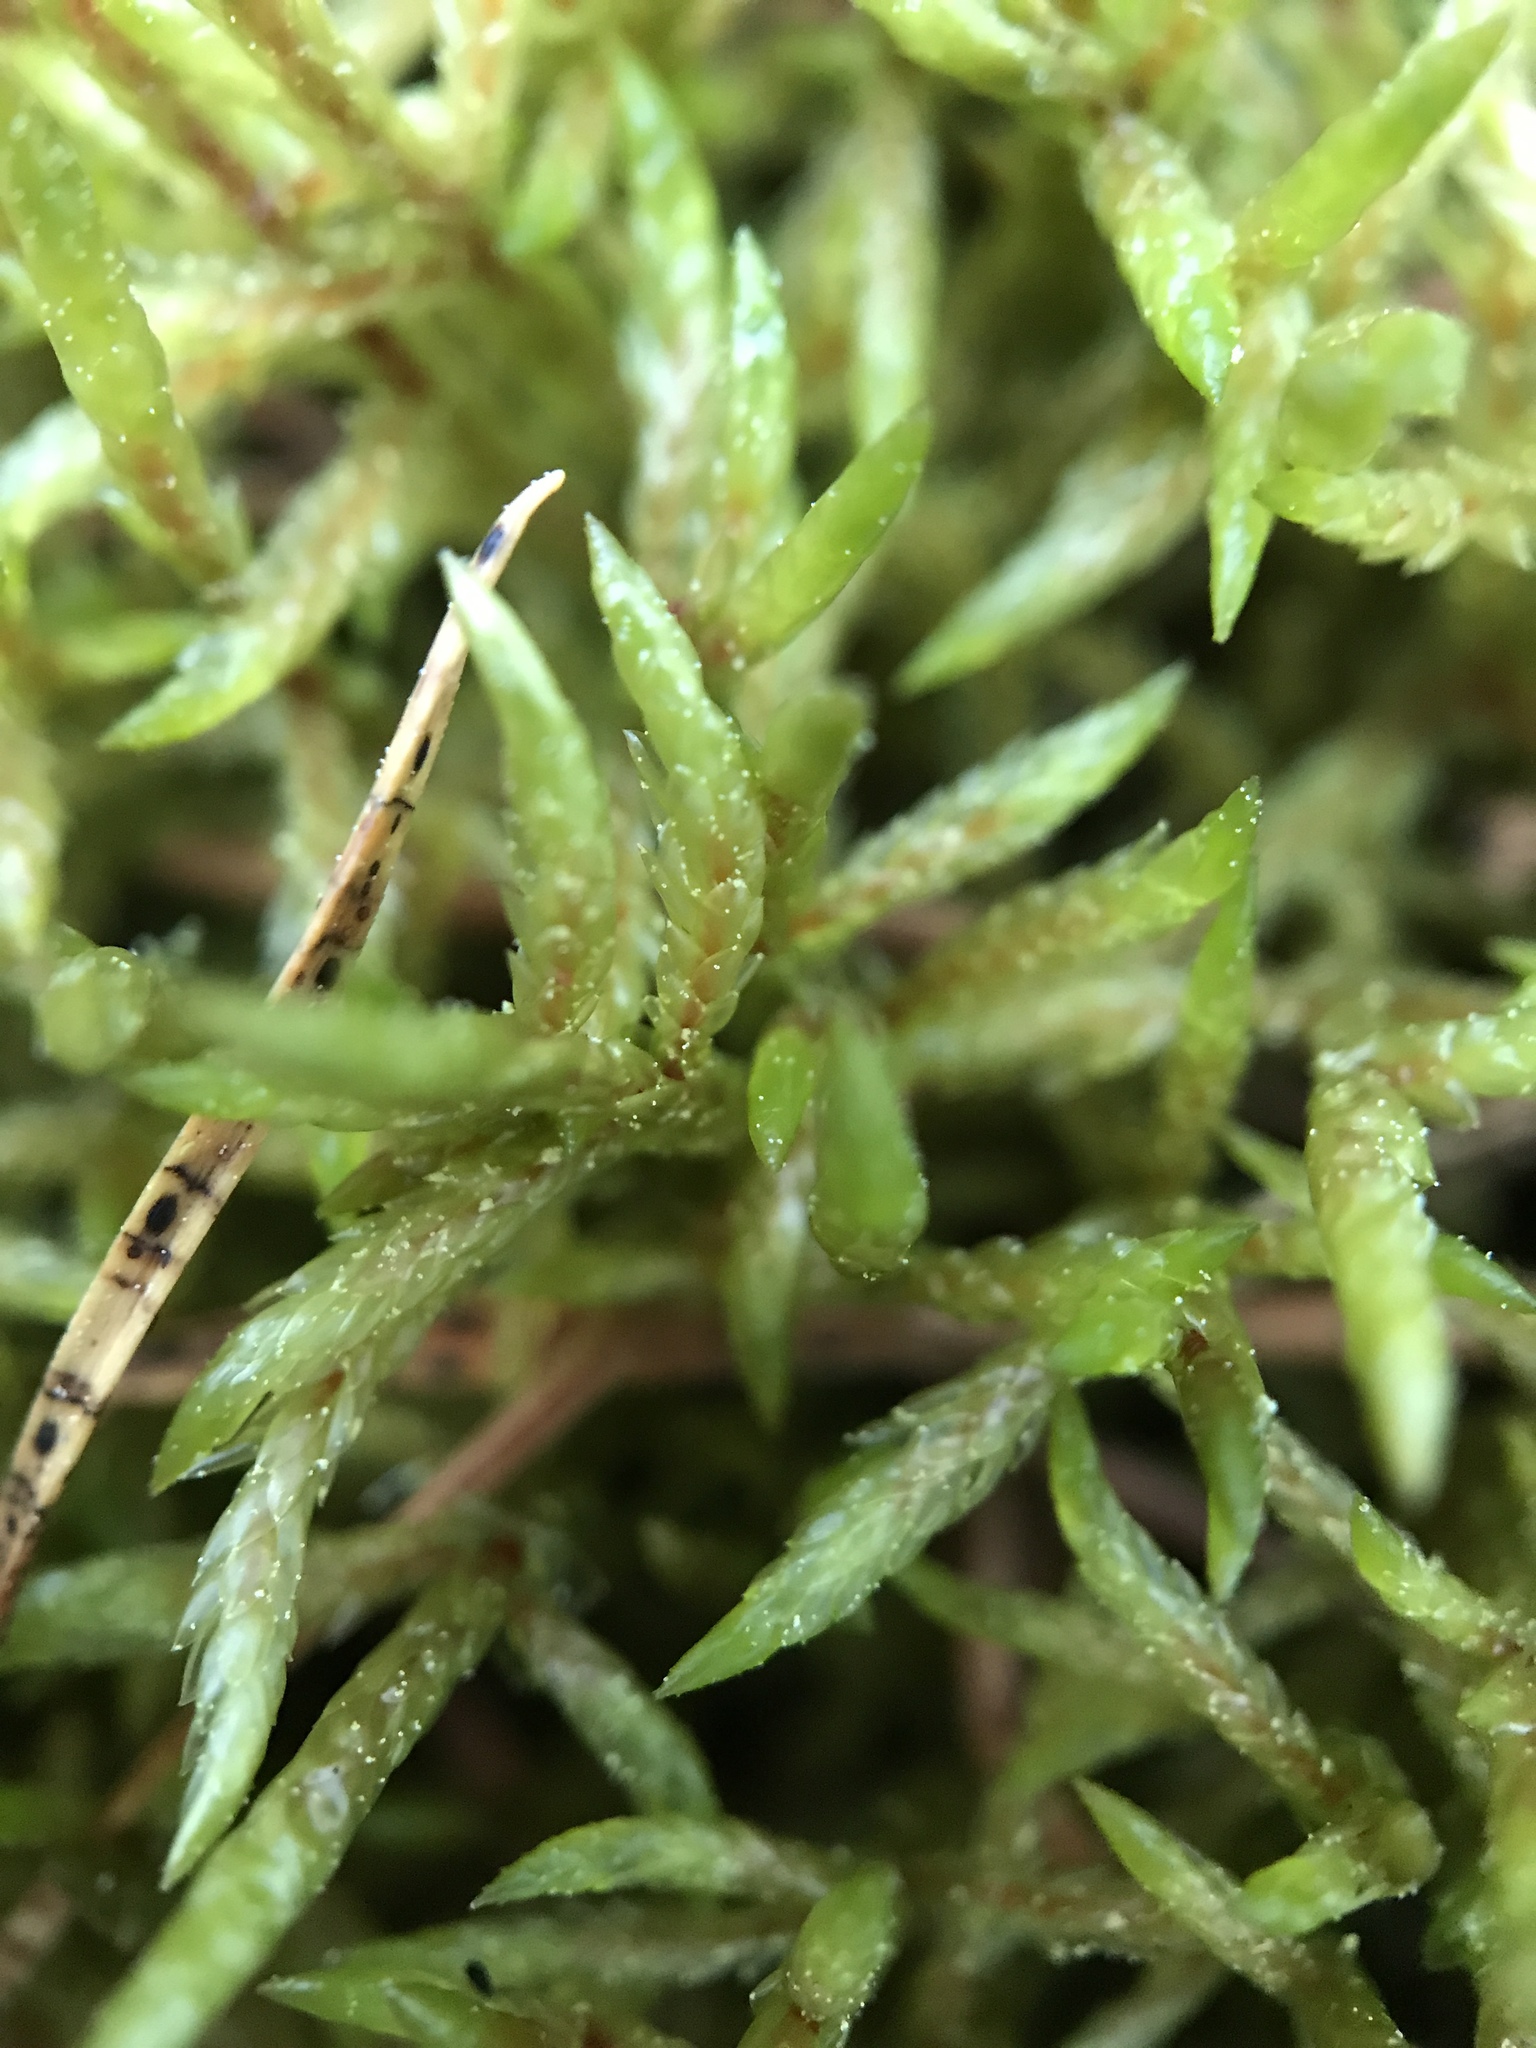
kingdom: Plantae
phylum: Bryophyta
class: Bryopsida
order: Hypnales
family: Hylocomiaceae
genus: Pleurozium
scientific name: Pleurozium schreberi
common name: Red-stemmed feather moss
